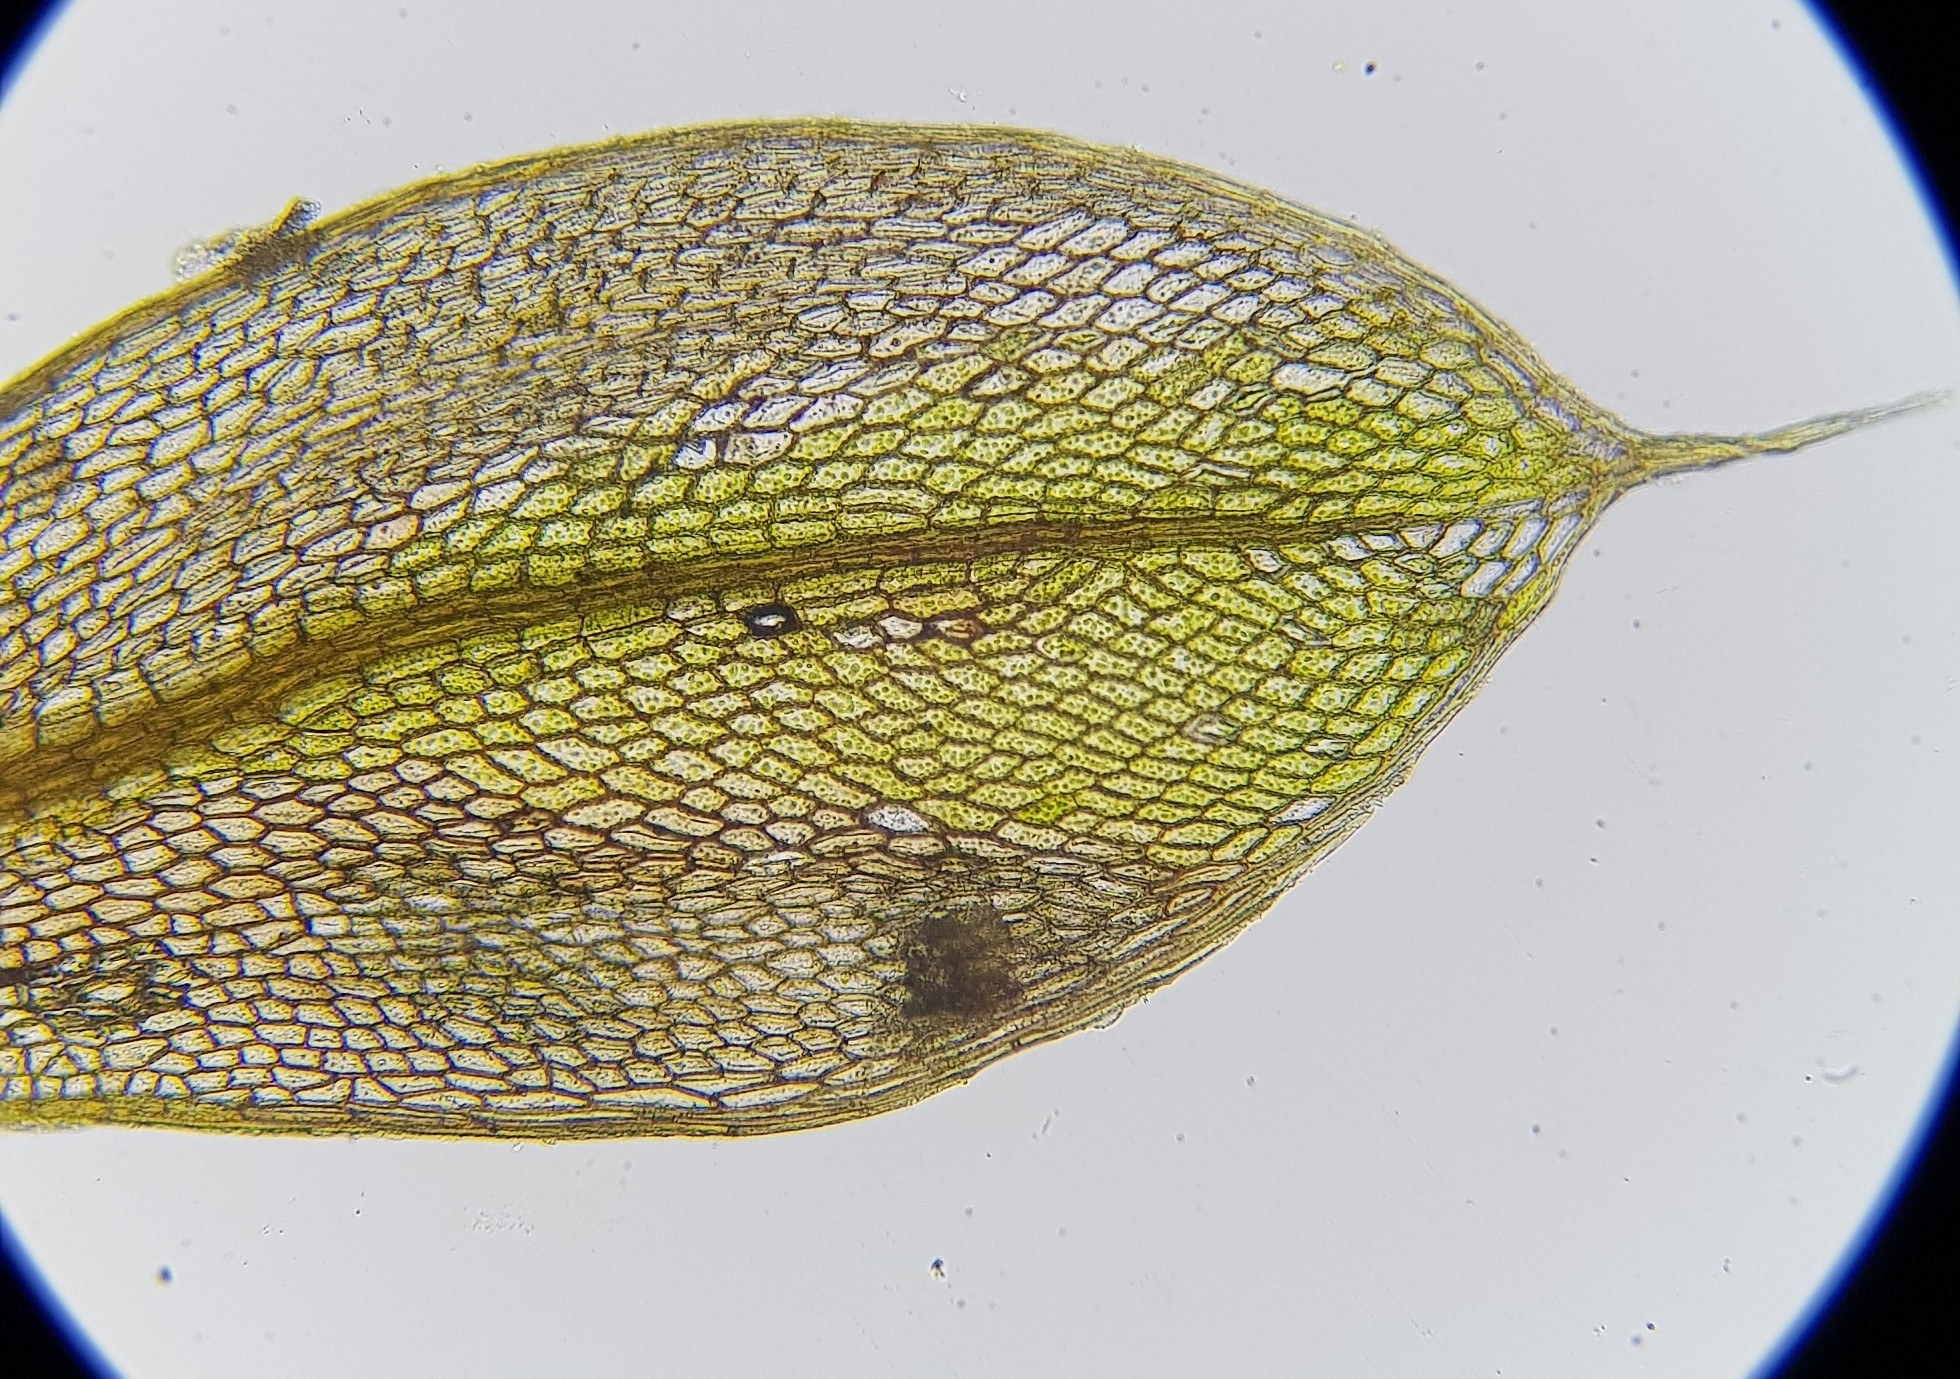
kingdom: Plantae
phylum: Bryophyta
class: Bryopsida
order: Bryales
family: Bryaceae
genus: Rosulabryum
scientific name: Rosulabryum capillare
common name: Capillary thread-moss
